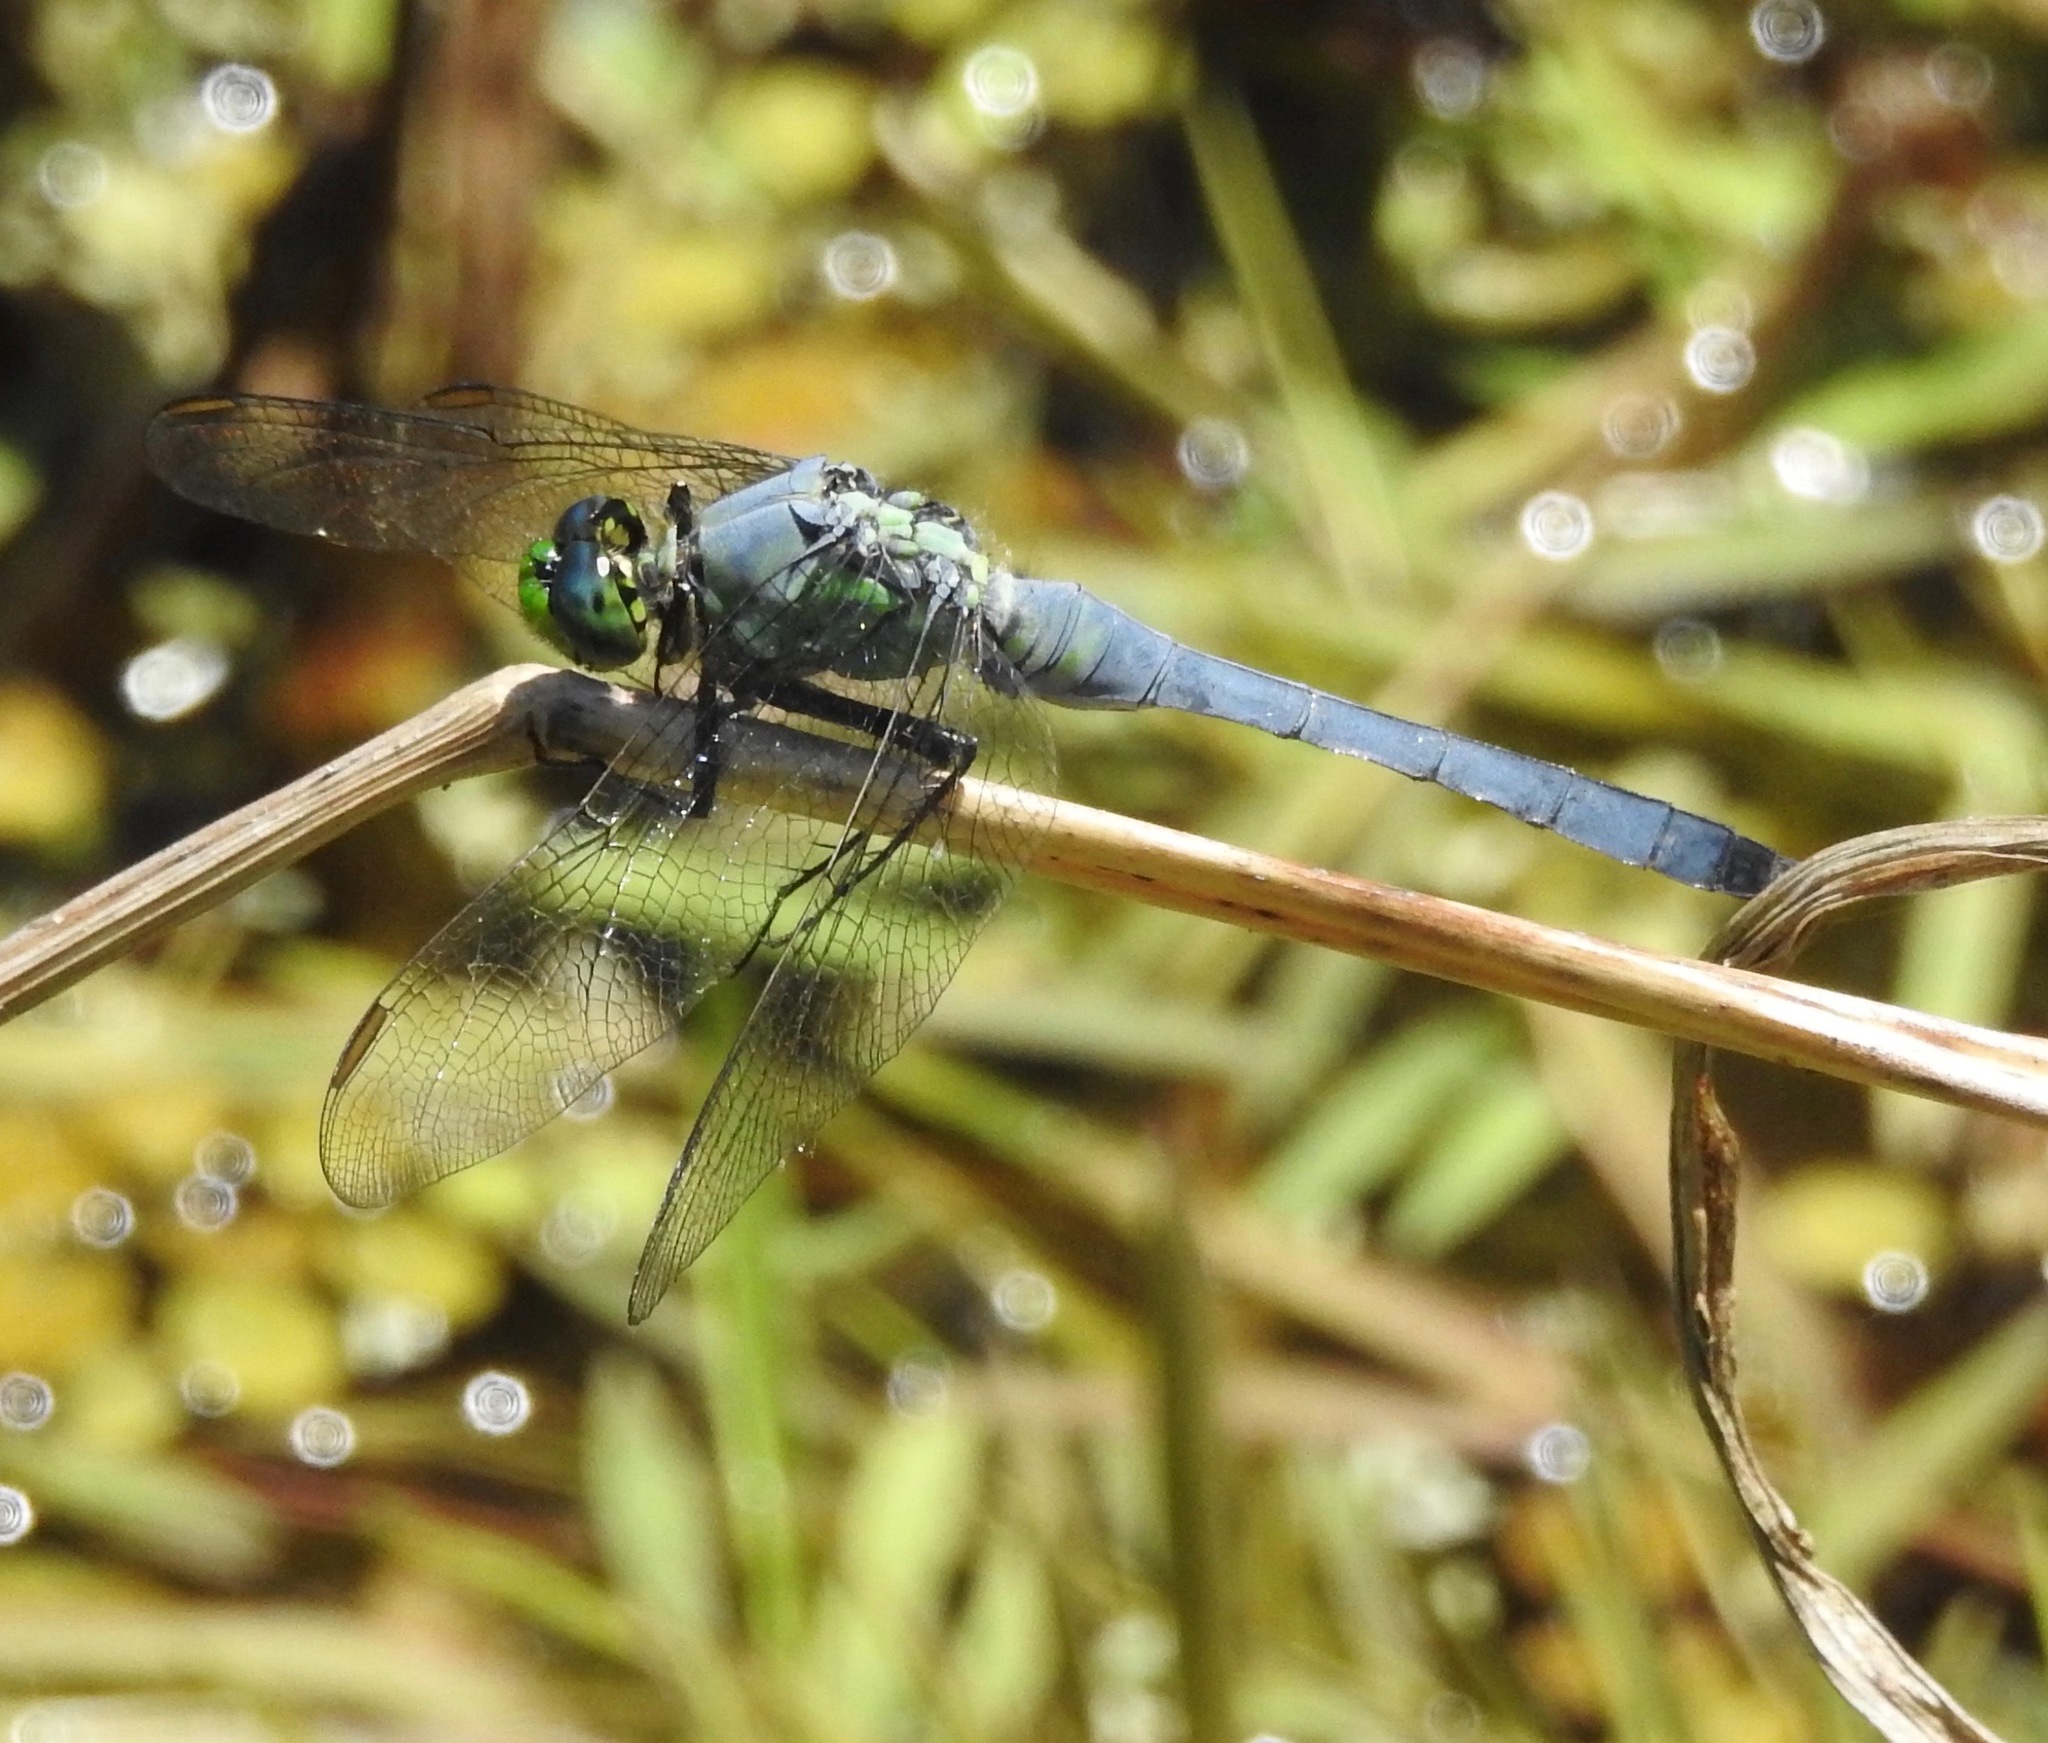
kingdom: Animalia
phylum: Arthropoda
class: Insecta
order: Odonata
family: Libellulidae
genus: Erythemis
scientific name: Erythemis simplicicollis
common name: Eastern pondhawk
